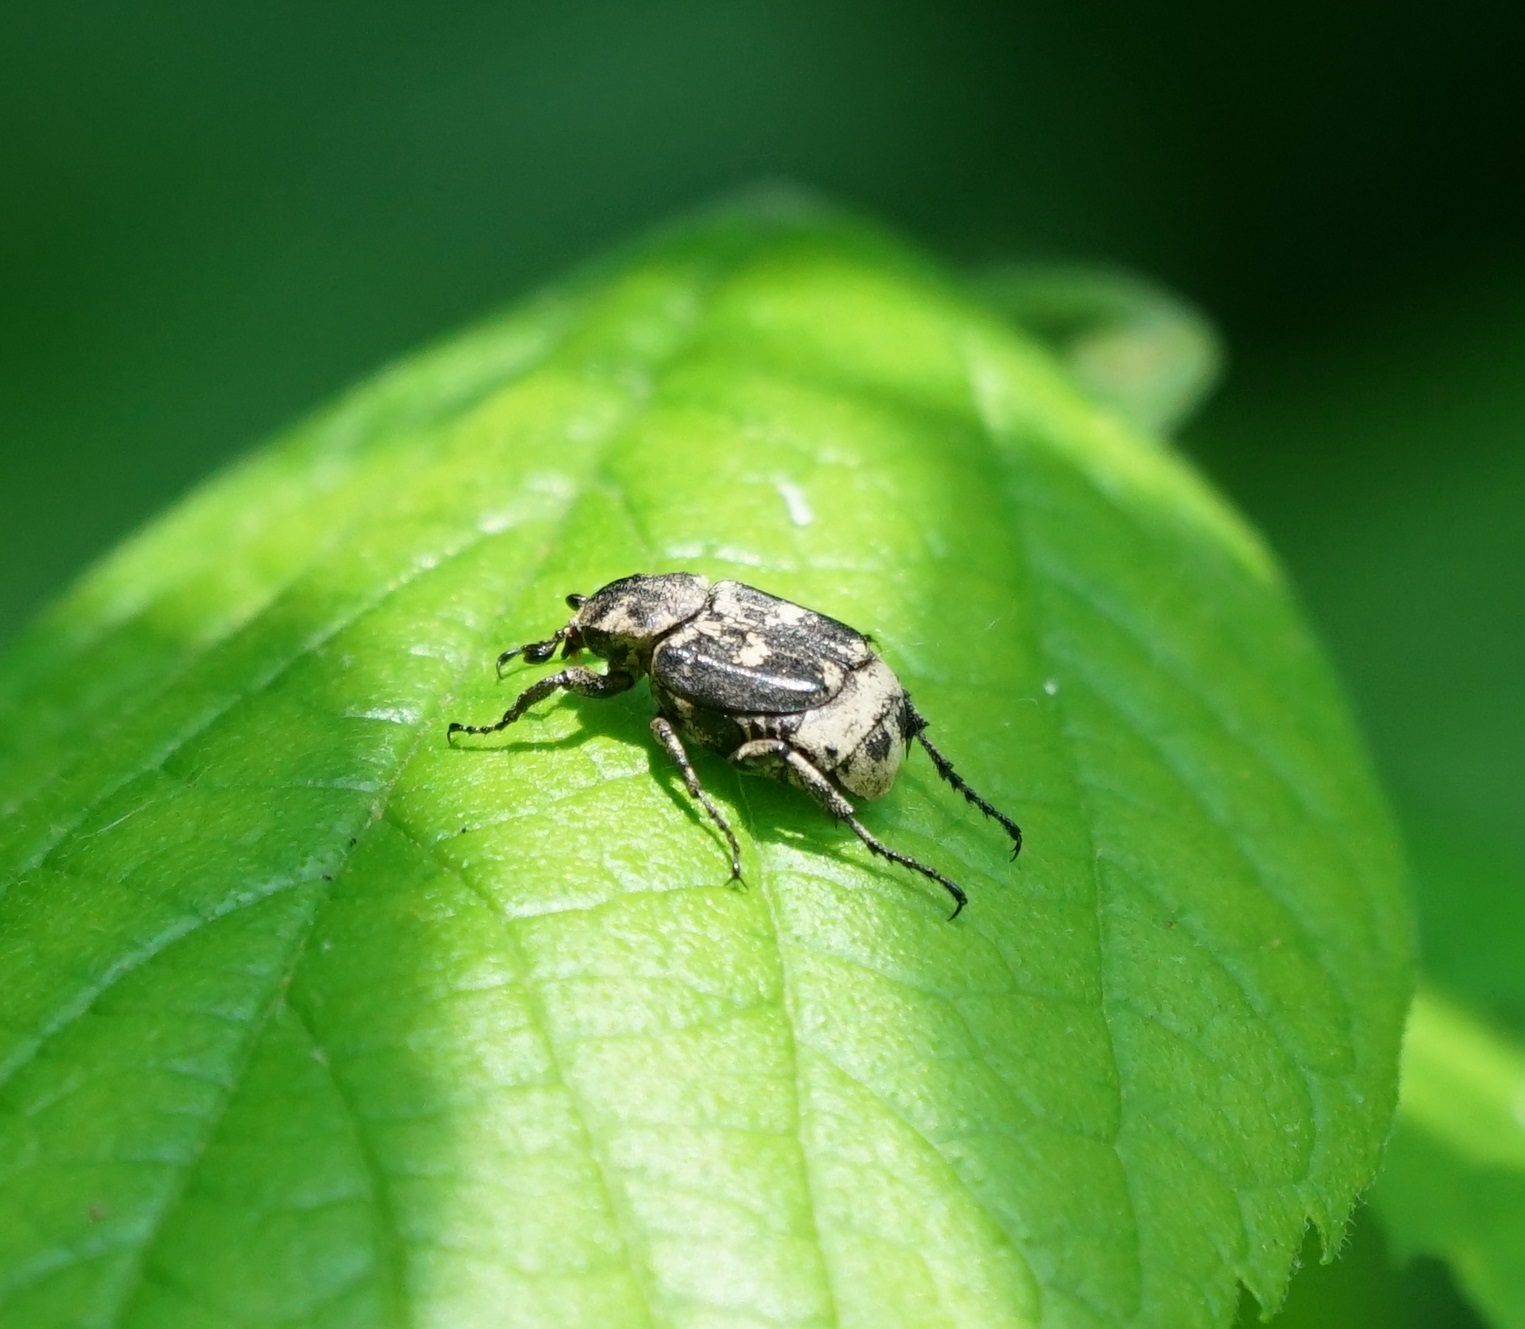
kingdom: Animalia
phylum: Arthropoda
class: Insecta
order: Coleoptera
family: Scarabaeidae
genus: Valgus
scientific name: Valgus hemipterus
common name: Bug flower chafer
